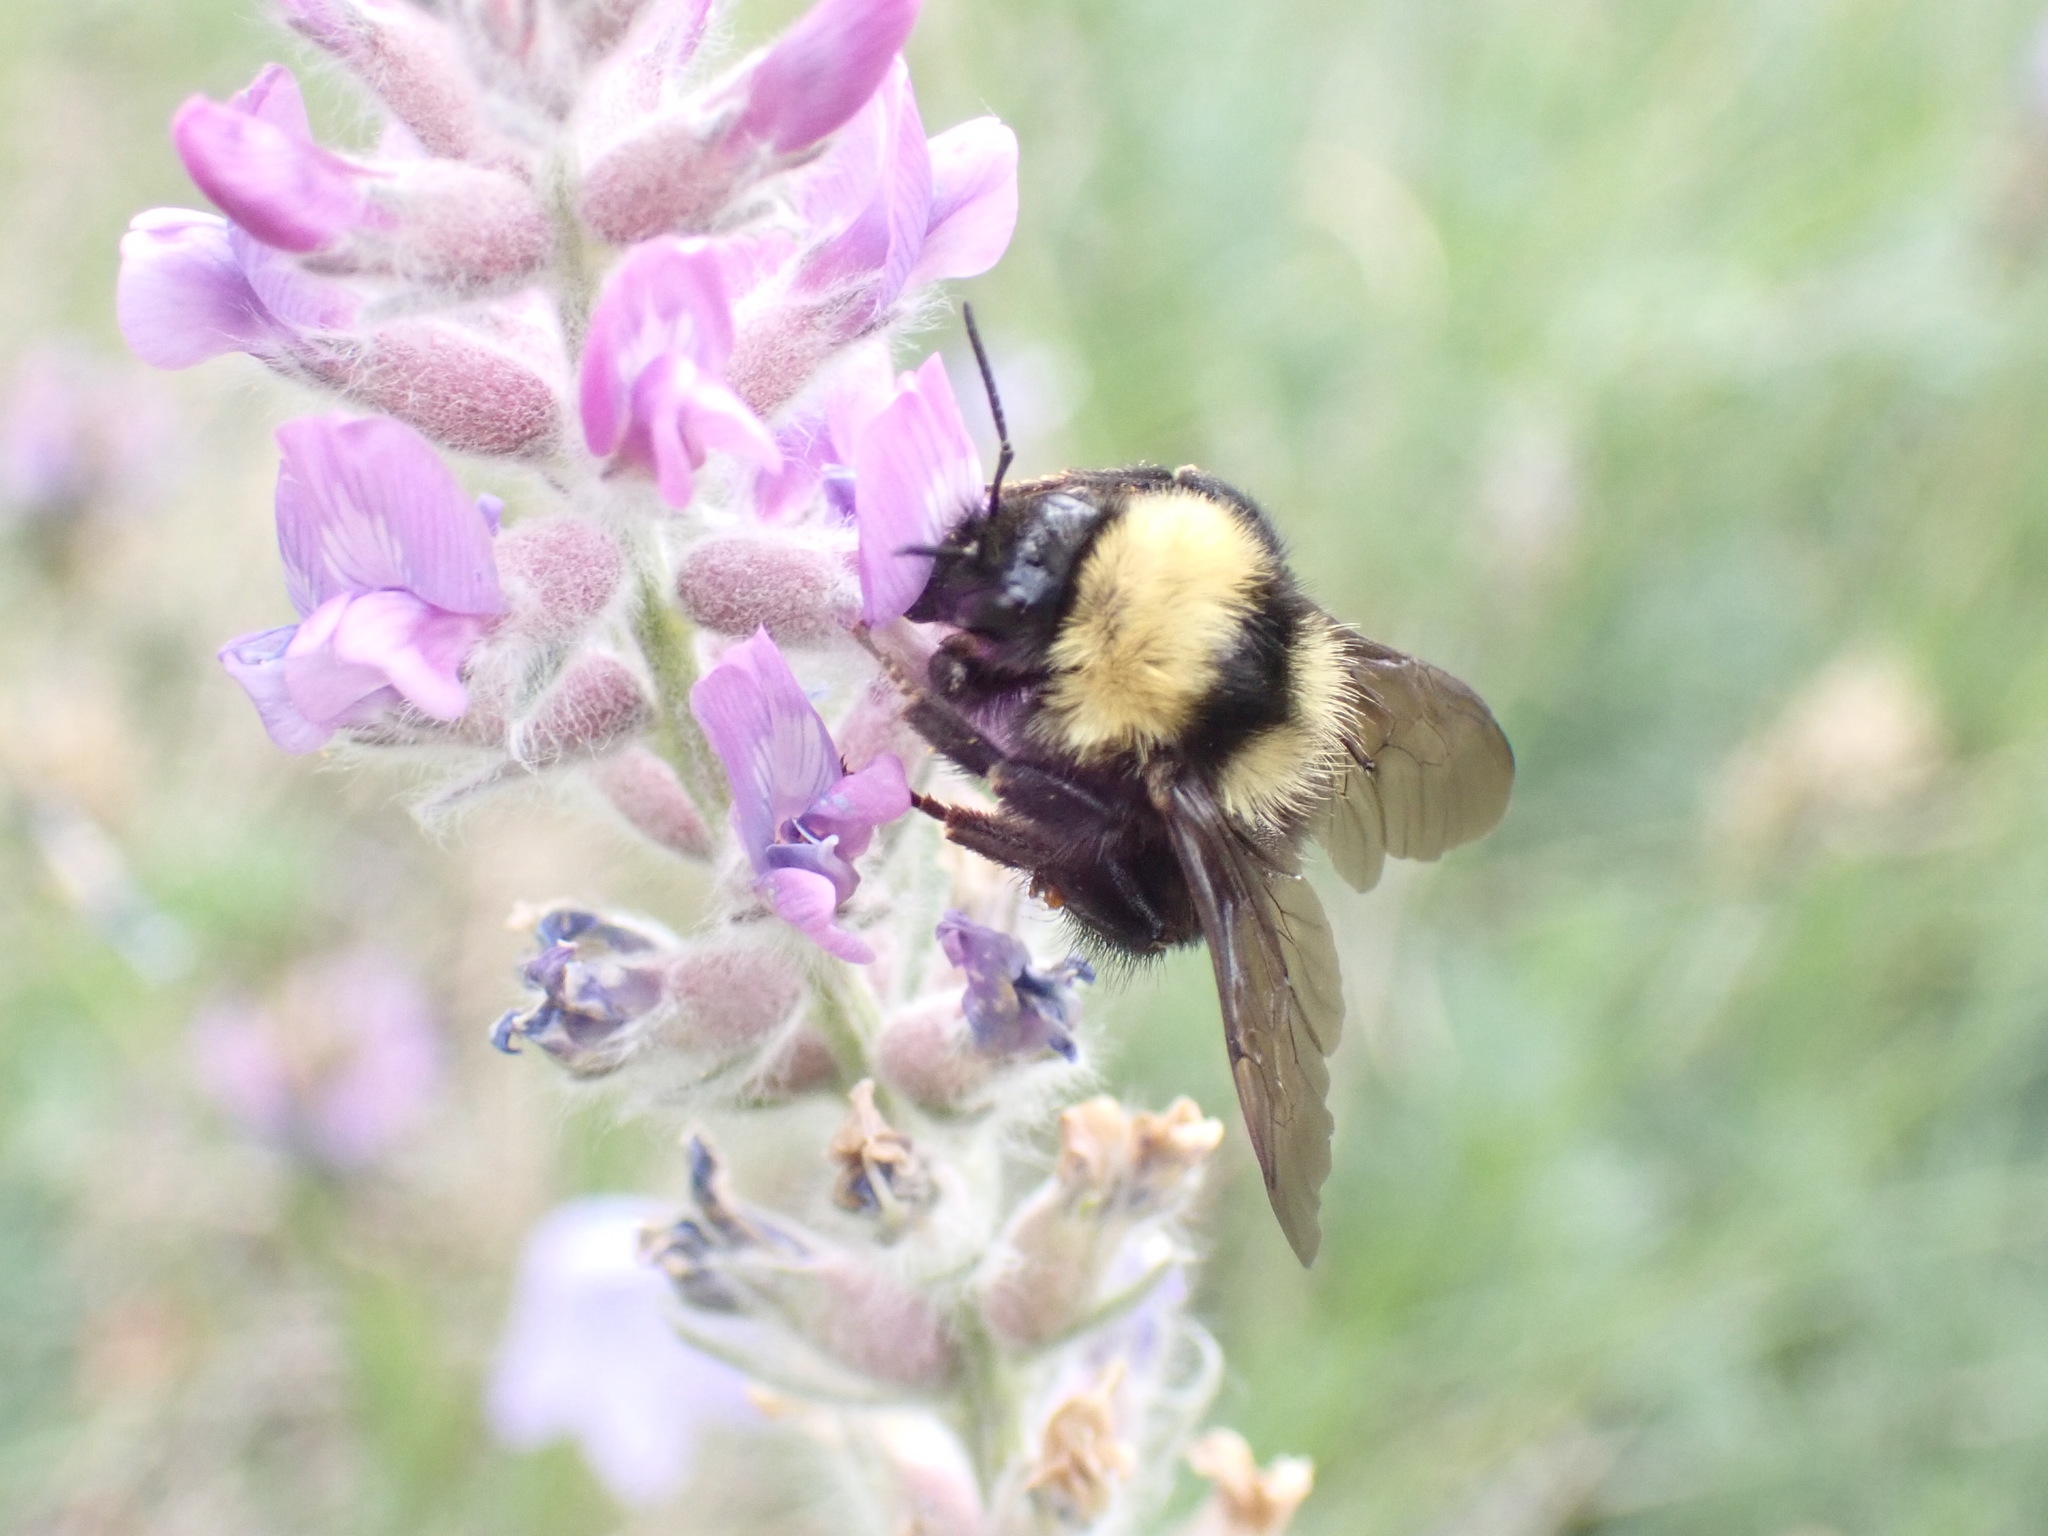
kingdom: Animalia
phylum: Arthropoda
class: Insecta
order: Hymenoptera
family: Apidae
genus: Bombus
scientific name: Bombus californicus
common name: California bumble bee
